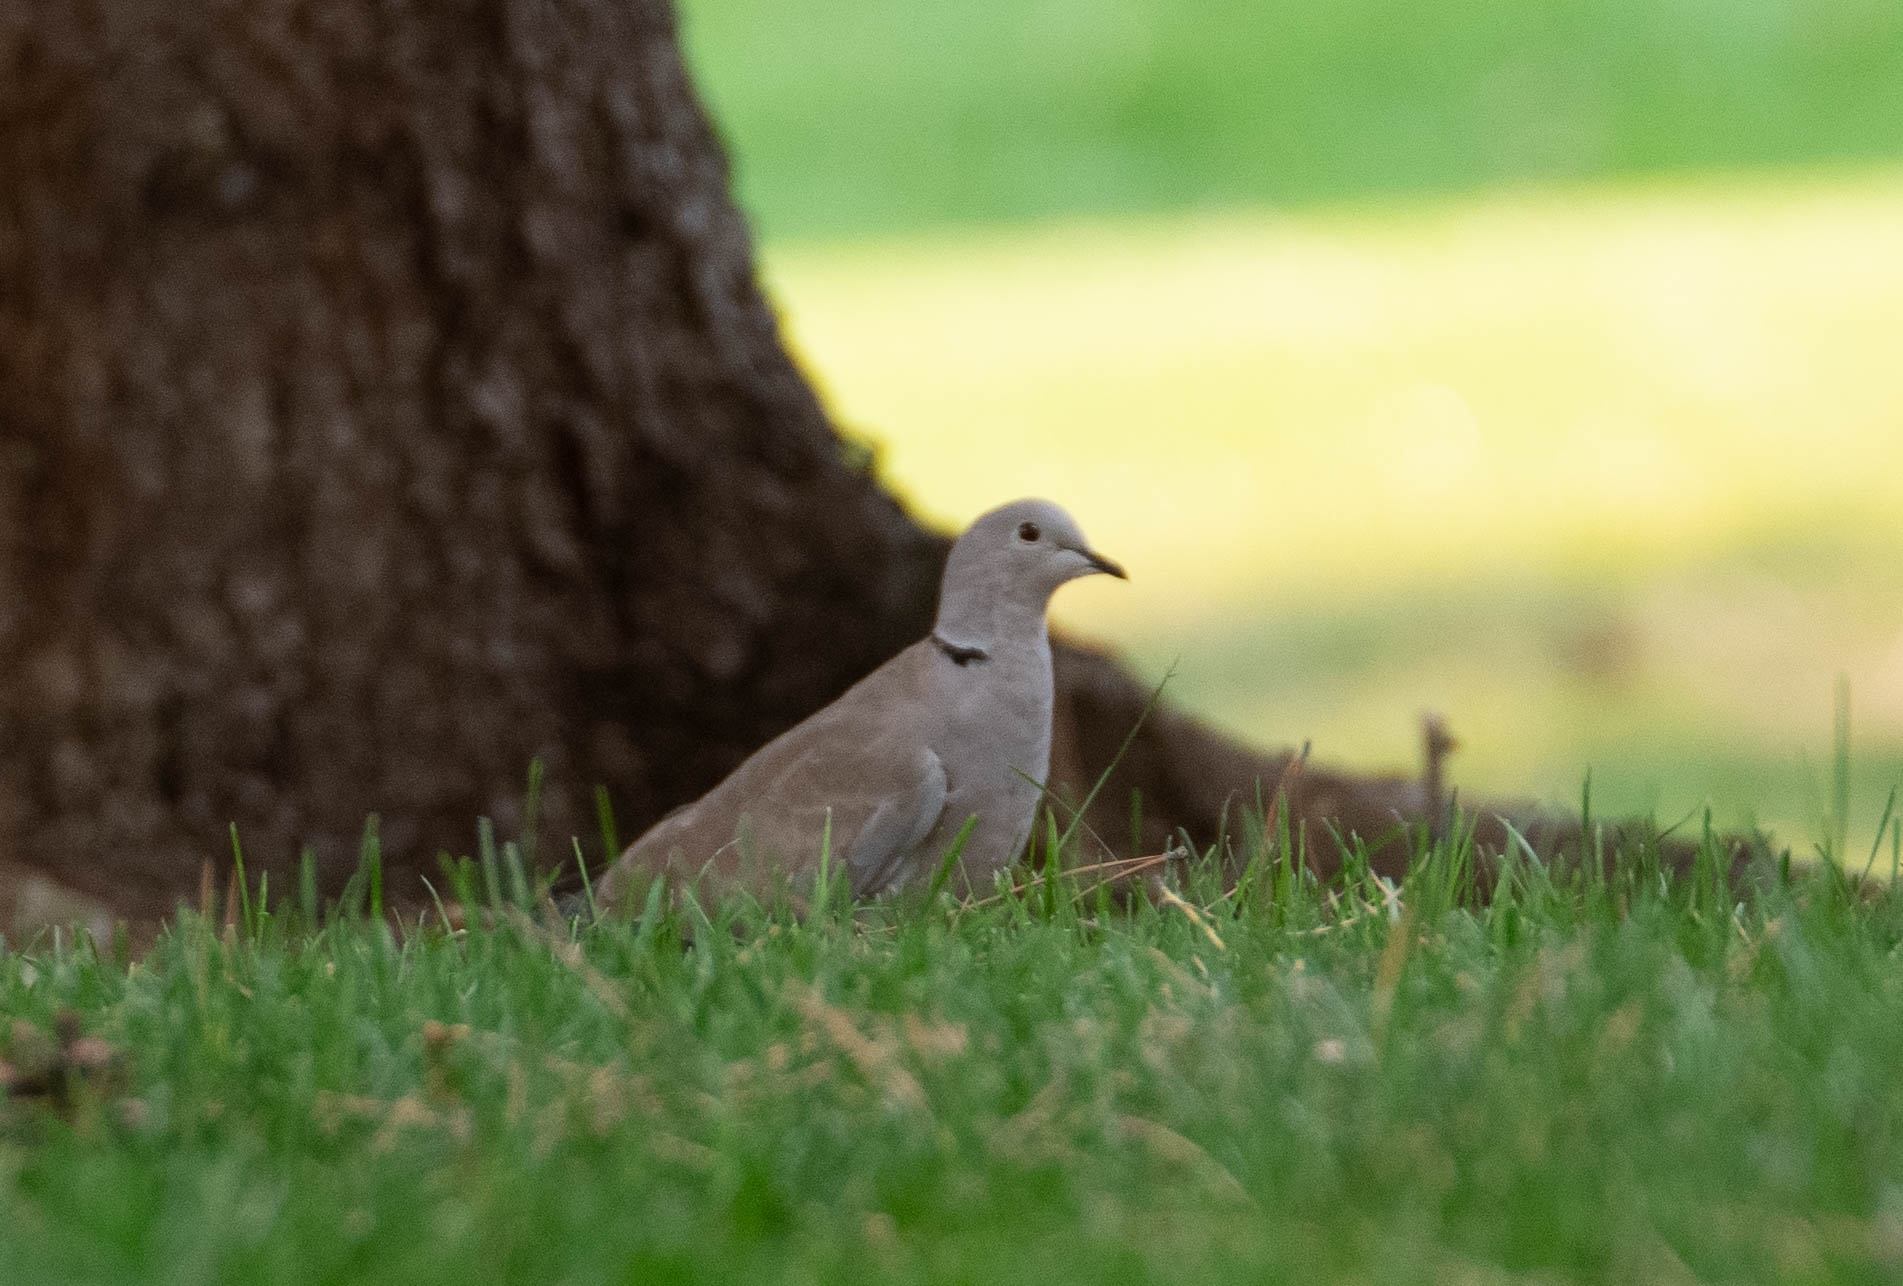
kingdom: Animalia
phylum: Chordata
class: Aves
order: Columbiformes
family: Columbidae
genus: Streptopelia
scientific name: Streptopelia decaocto
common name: Eurasian collared dove
